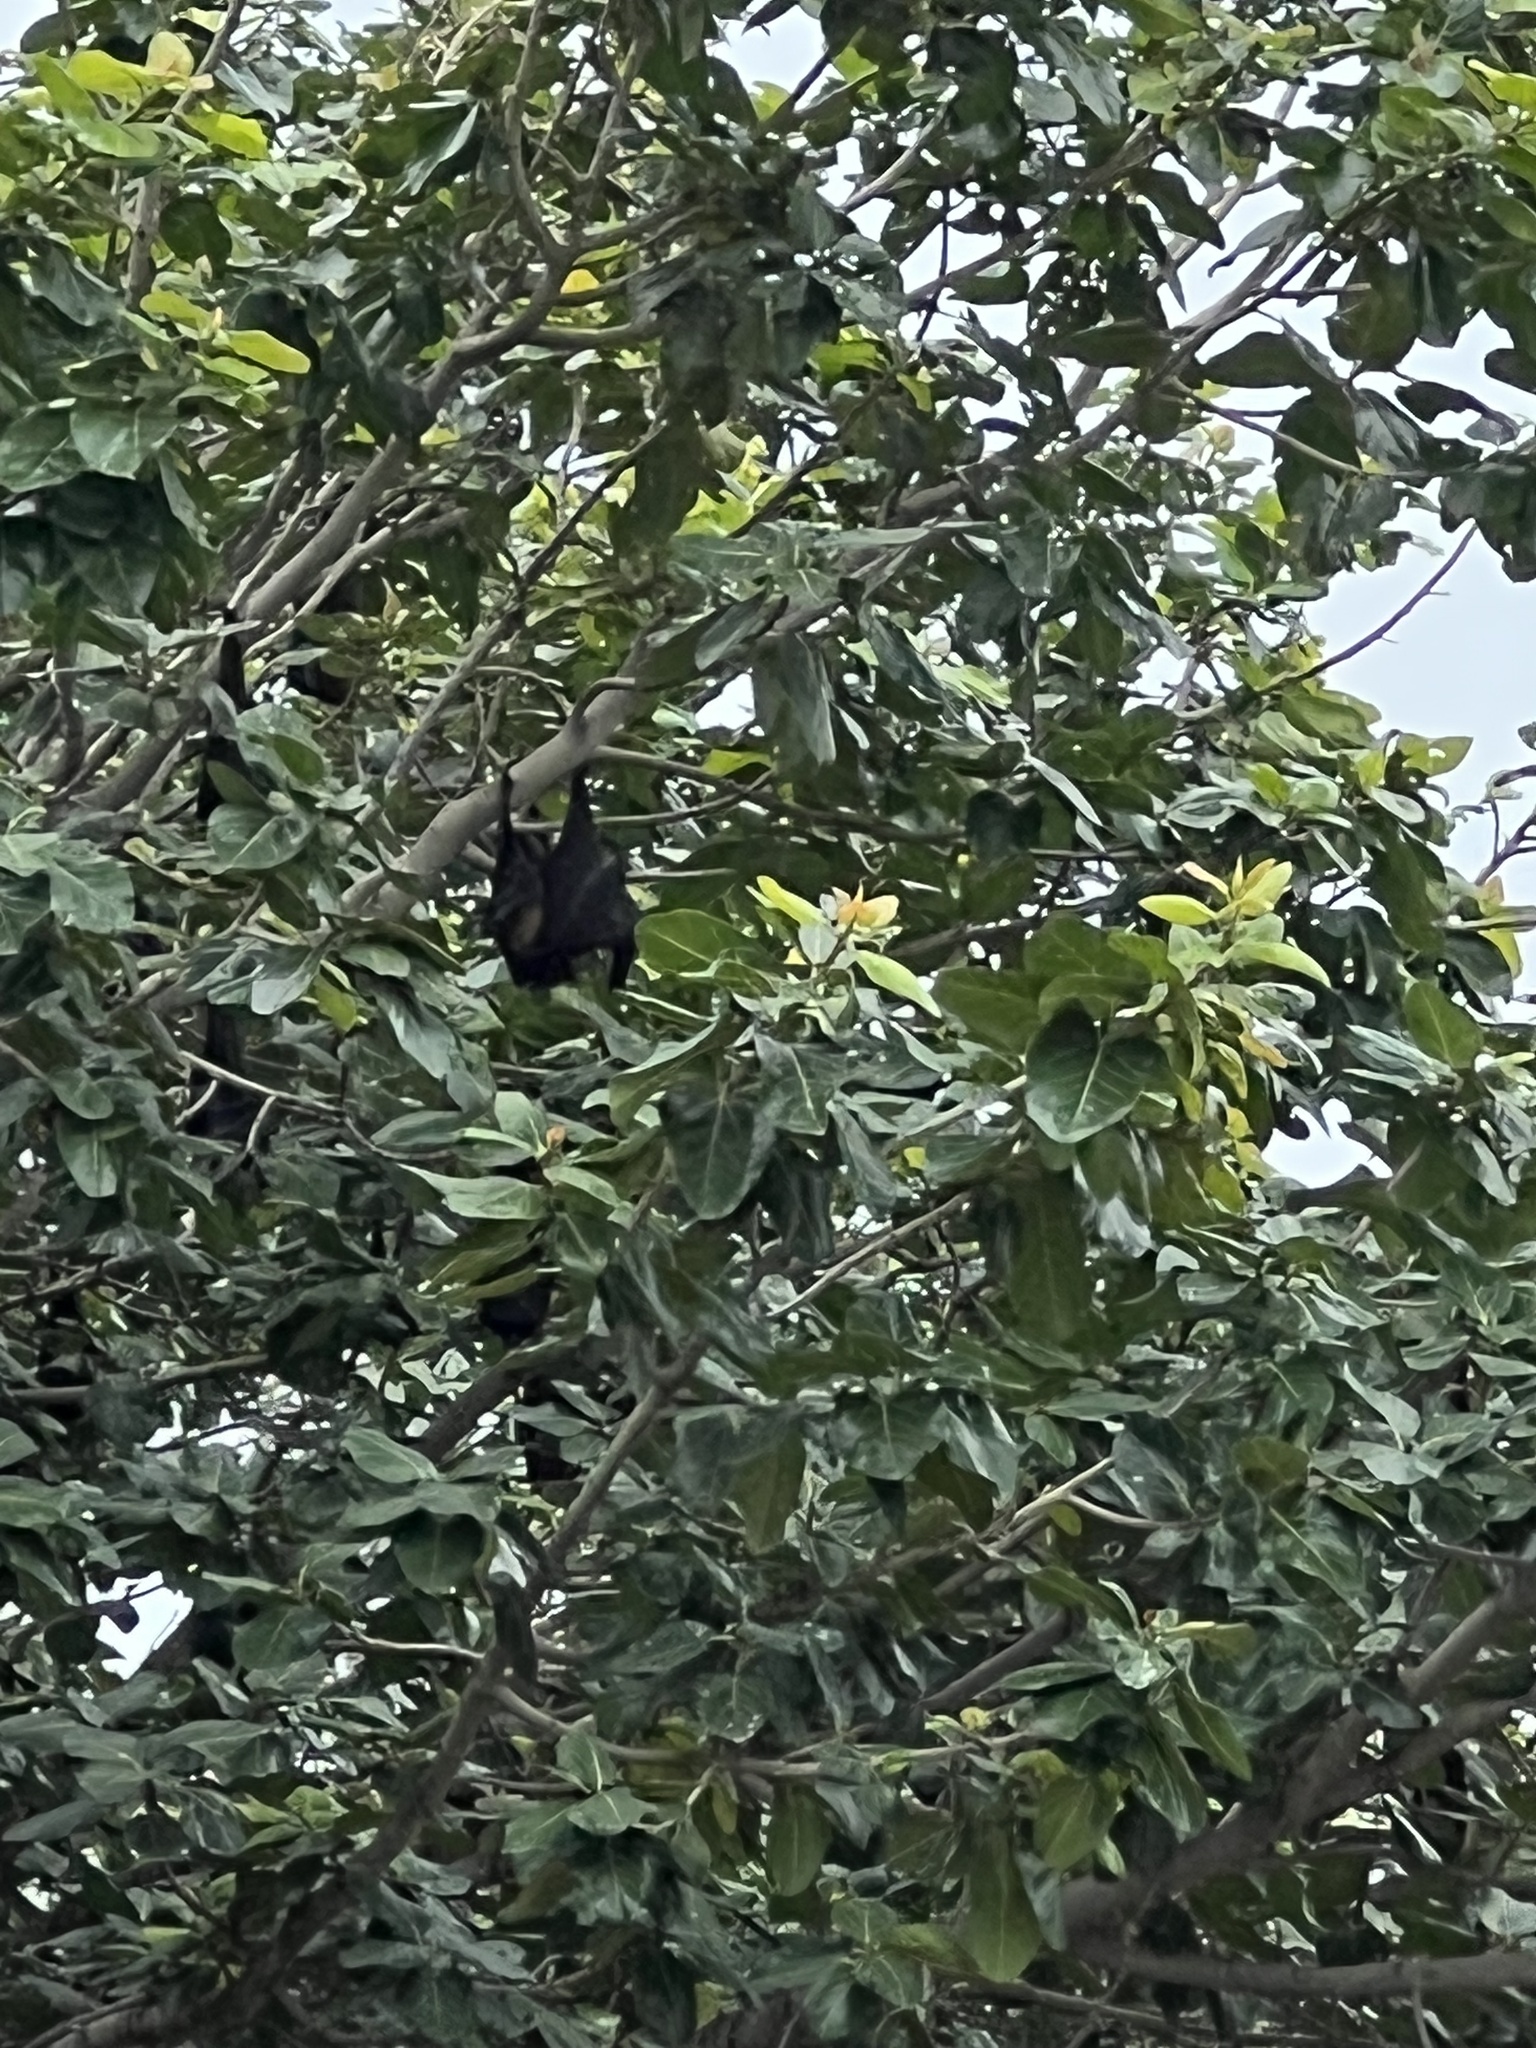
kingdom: Animalia
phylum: Chordata
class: Mammalia
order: Chiroptera
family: Pteropodidae
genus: Pteropus
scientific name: Pteropus vampyrus
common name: Large flying fox
